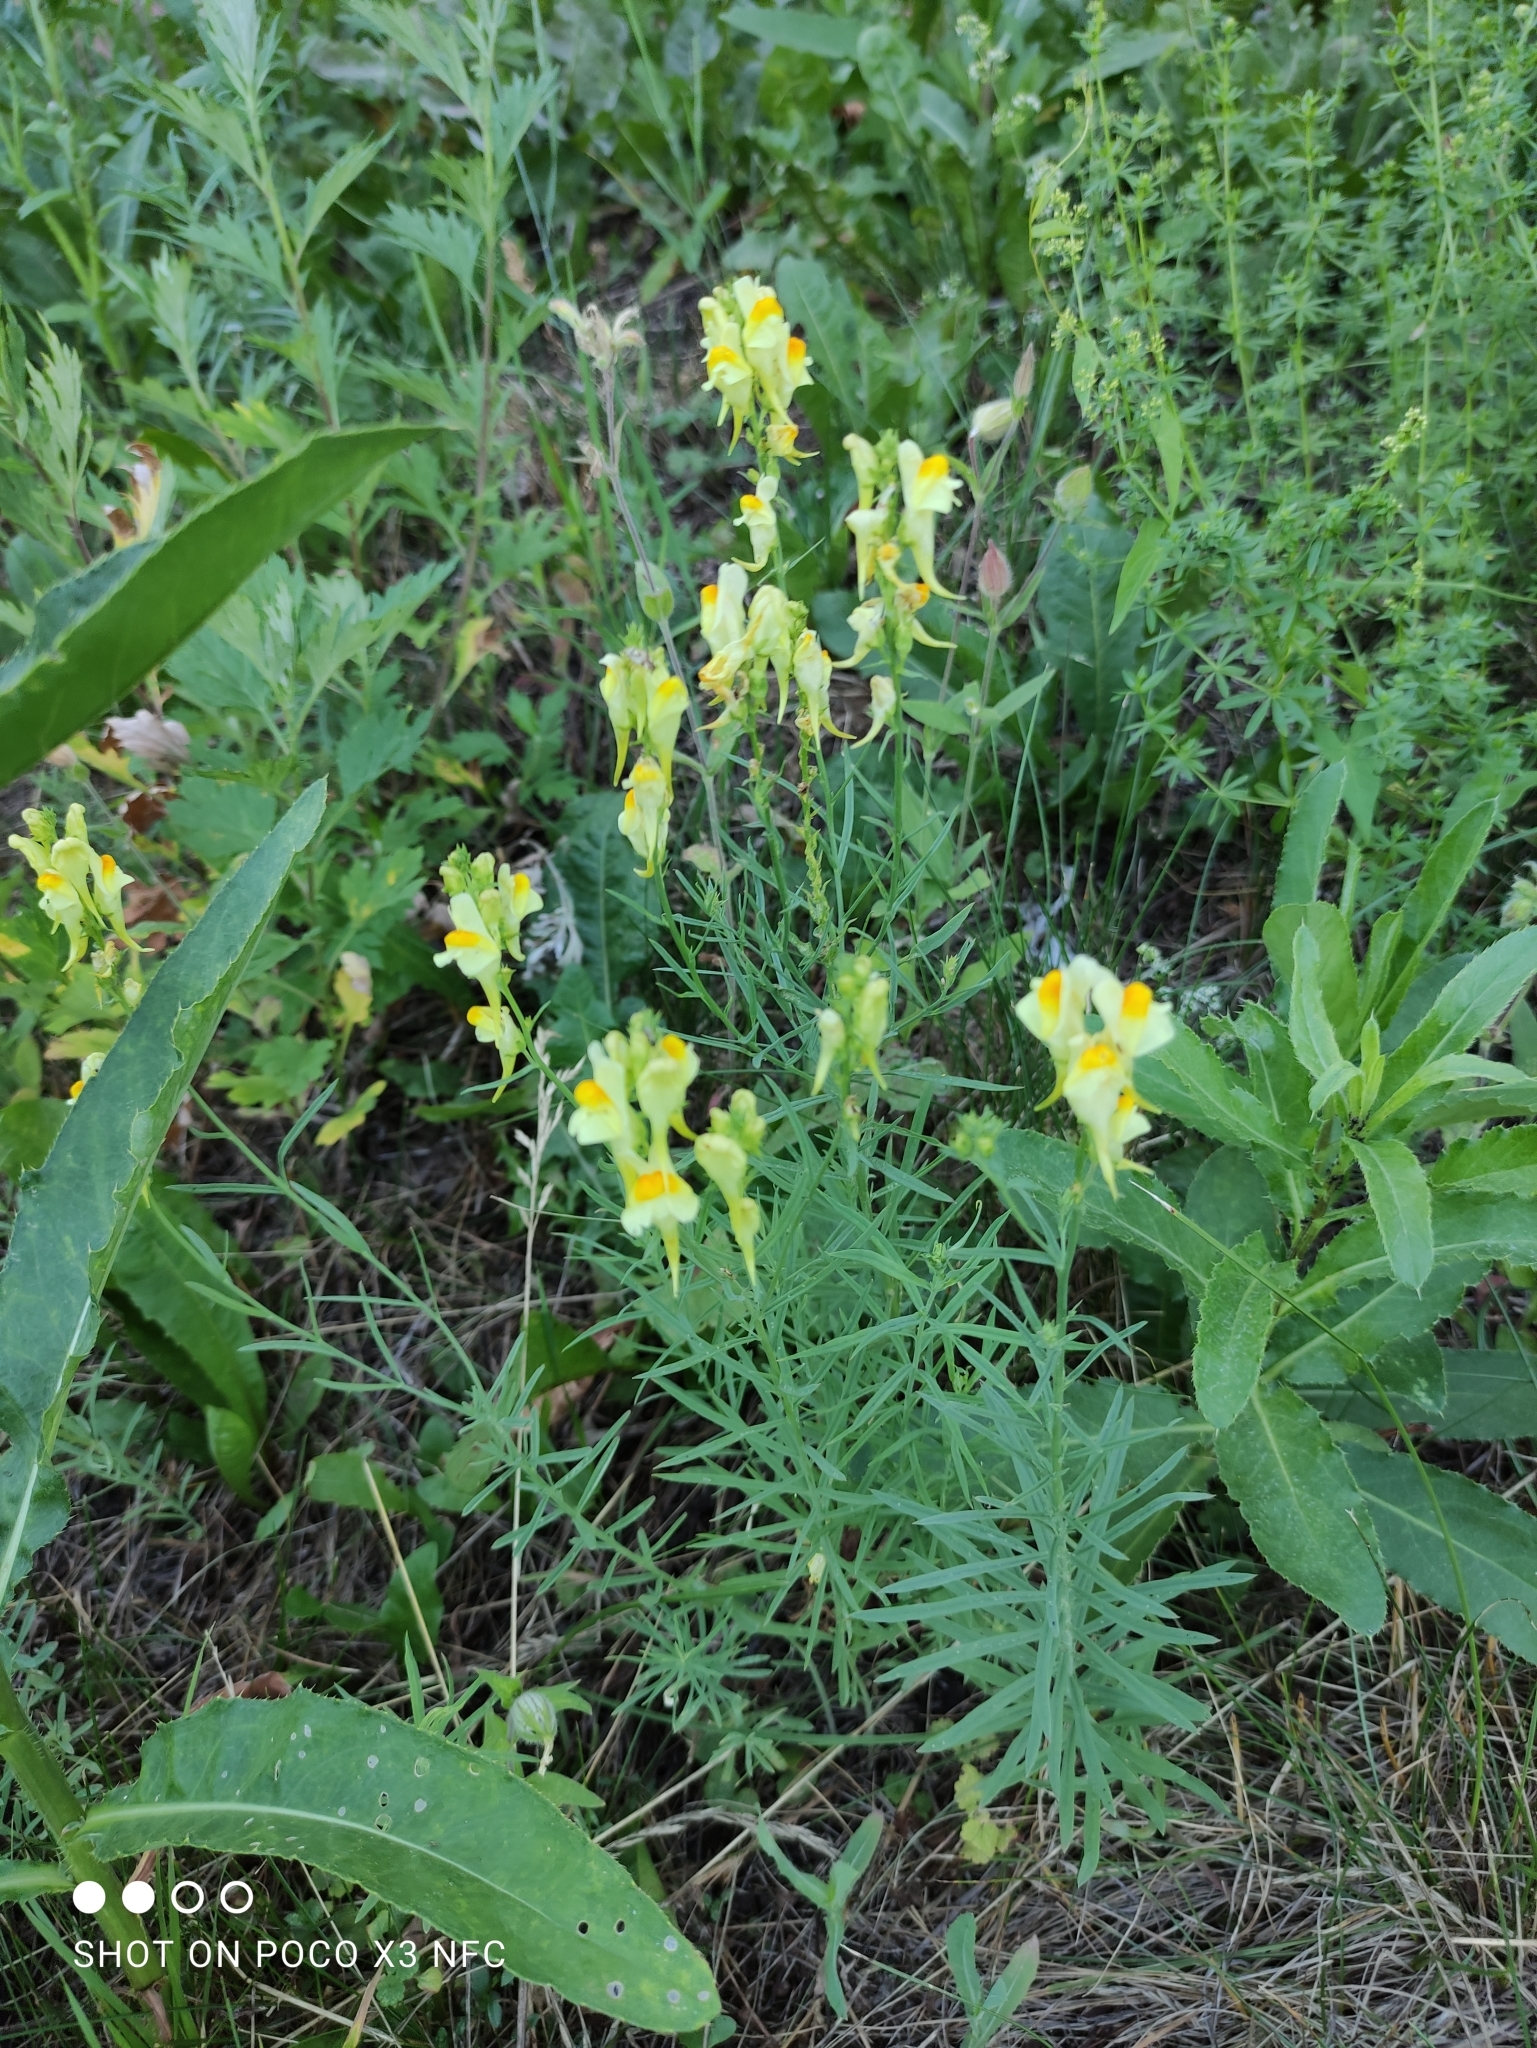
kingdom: Plantae
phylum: Tracheophyta
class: Magnoliopsida
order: Lamiales
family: Plantaginaceae
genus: Linaria
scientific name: Linaria vulgaris
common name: Butter and eggs
